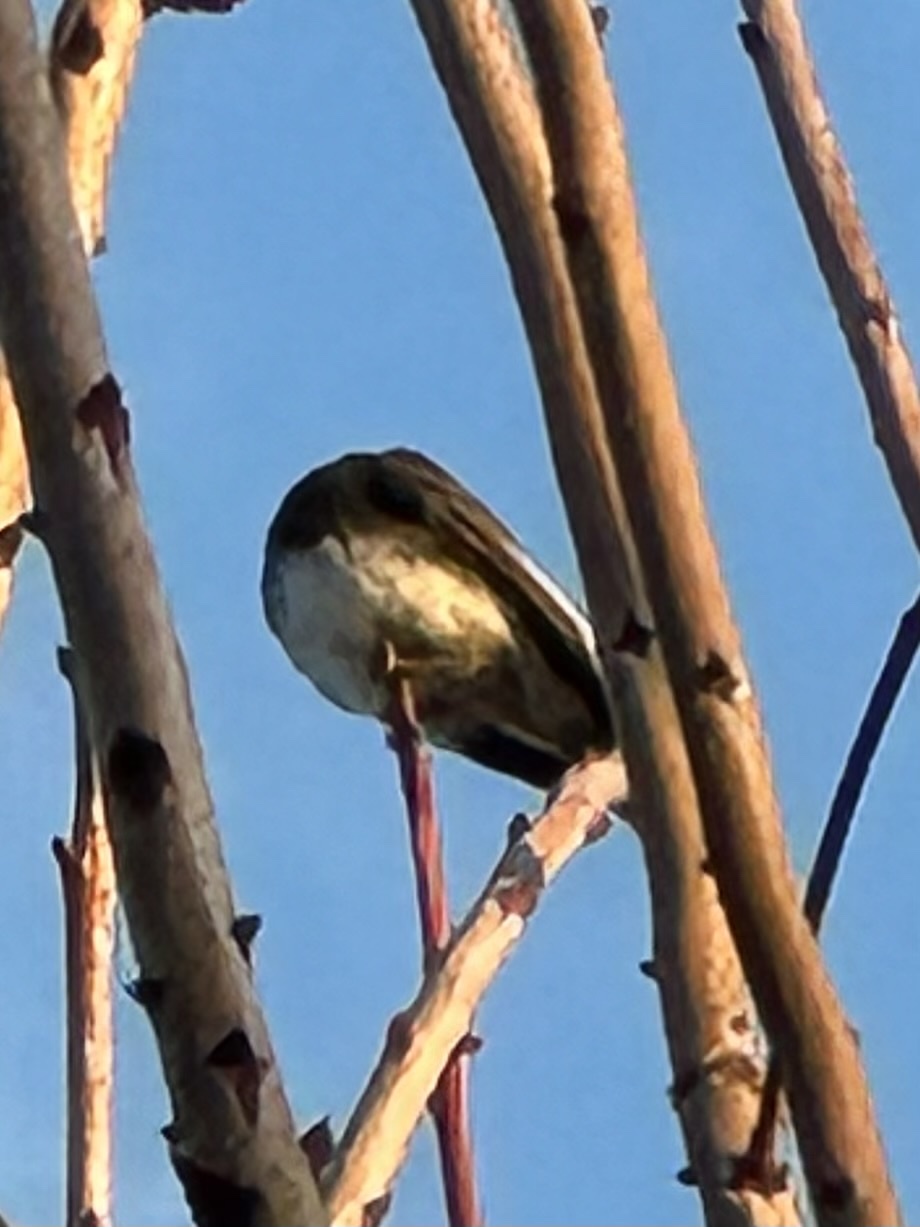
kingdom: Animalia
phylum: Chordata
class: Aves
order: Passeriformes
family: Tyrannidae
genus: Sayornis
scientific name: Sayornis nigricans
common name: Black phoebe
